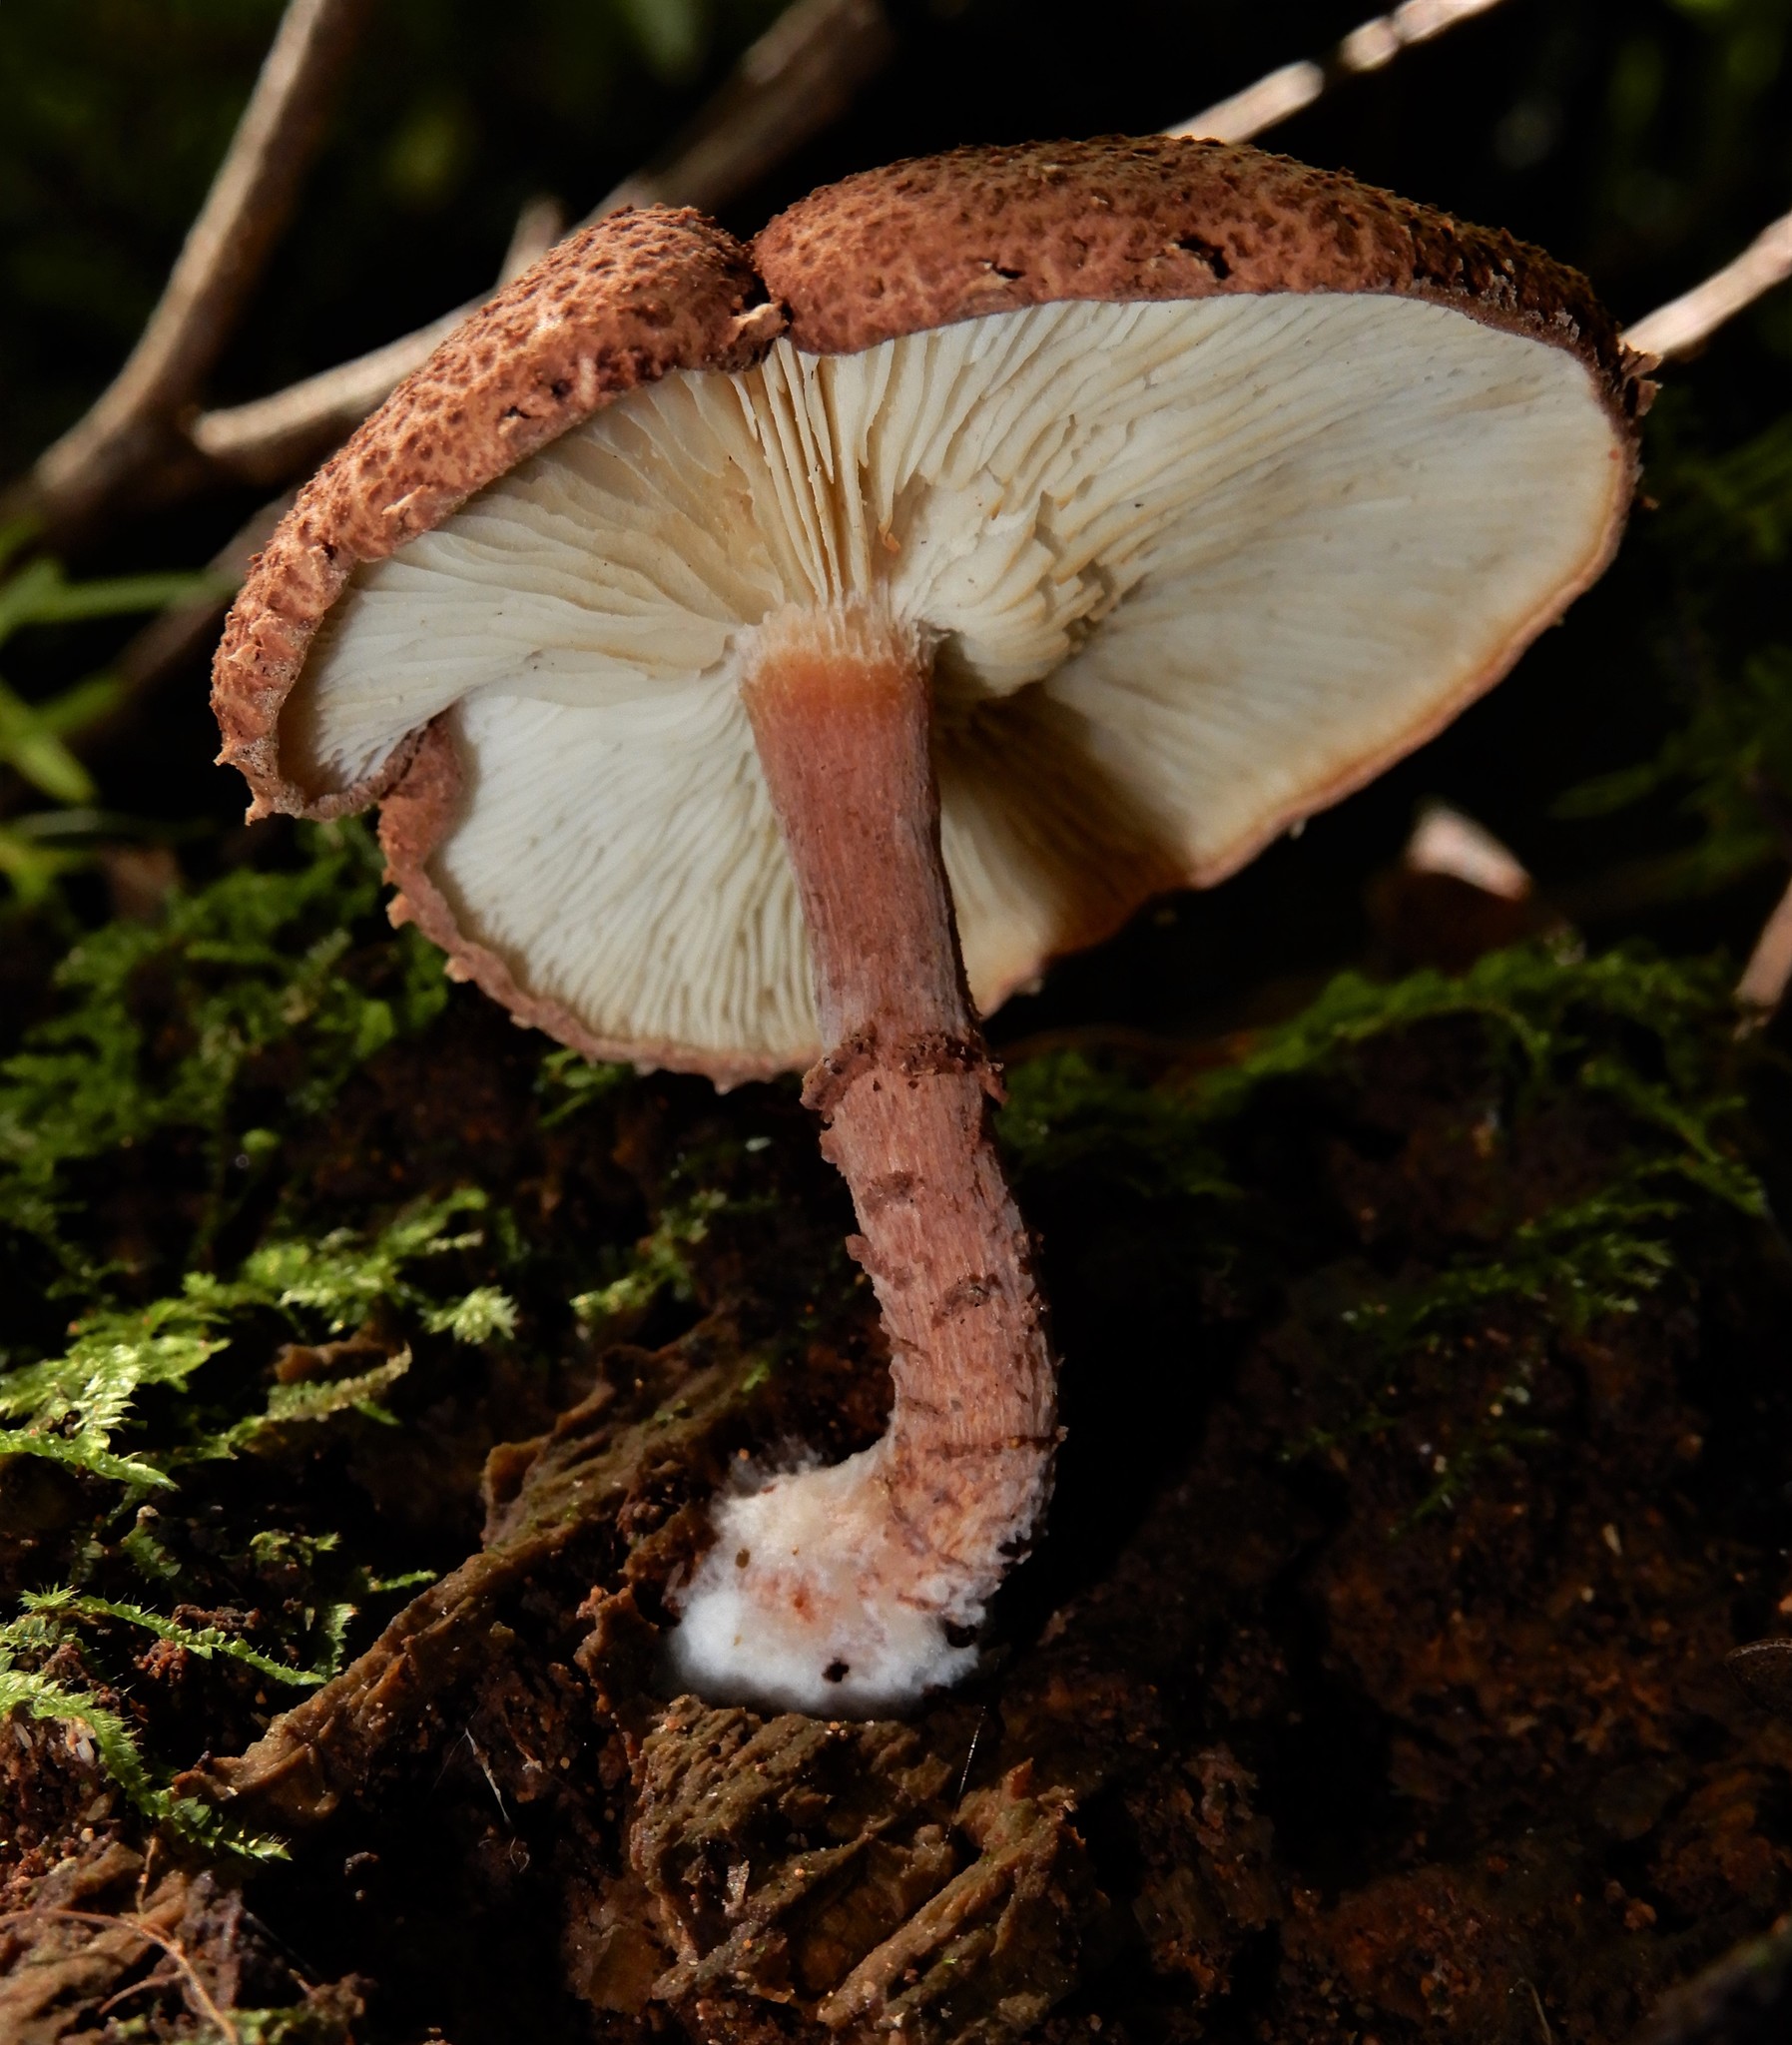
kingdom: Fungi
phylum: Basidiomycota
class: Agaricomycetes
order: Agaricales
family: Agaricaceae
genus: Ripartitella
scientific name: Ripartitella
